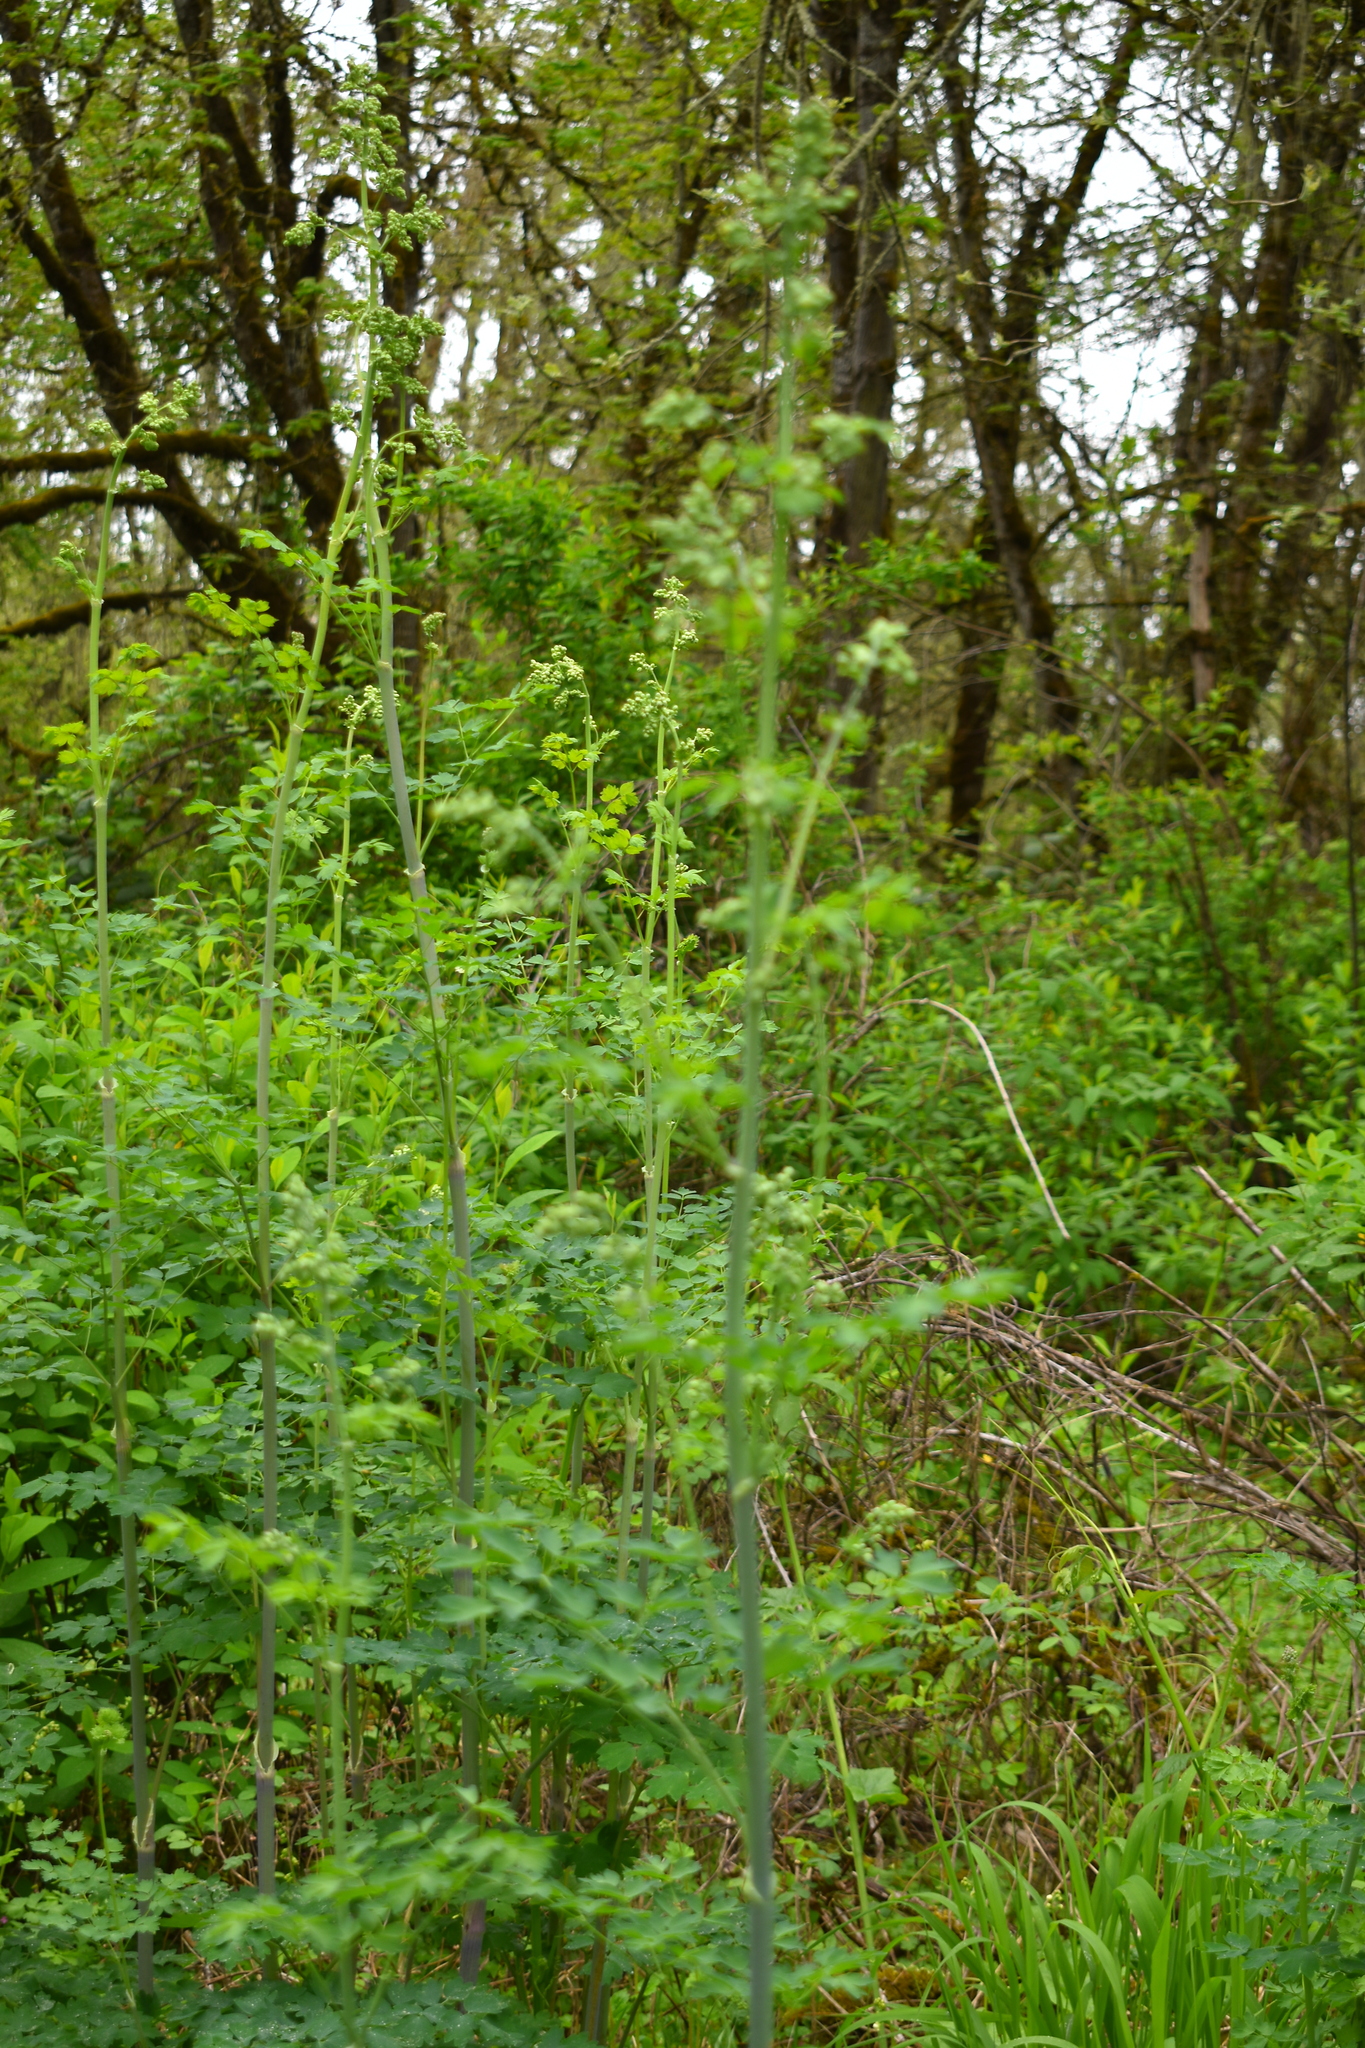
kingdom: Plantae
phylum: Tracheophyta
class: Magnoliopsida
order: Ranunculales
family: Ranunculaceae
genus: Thalictrum
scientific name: Thalictrum fendleri
